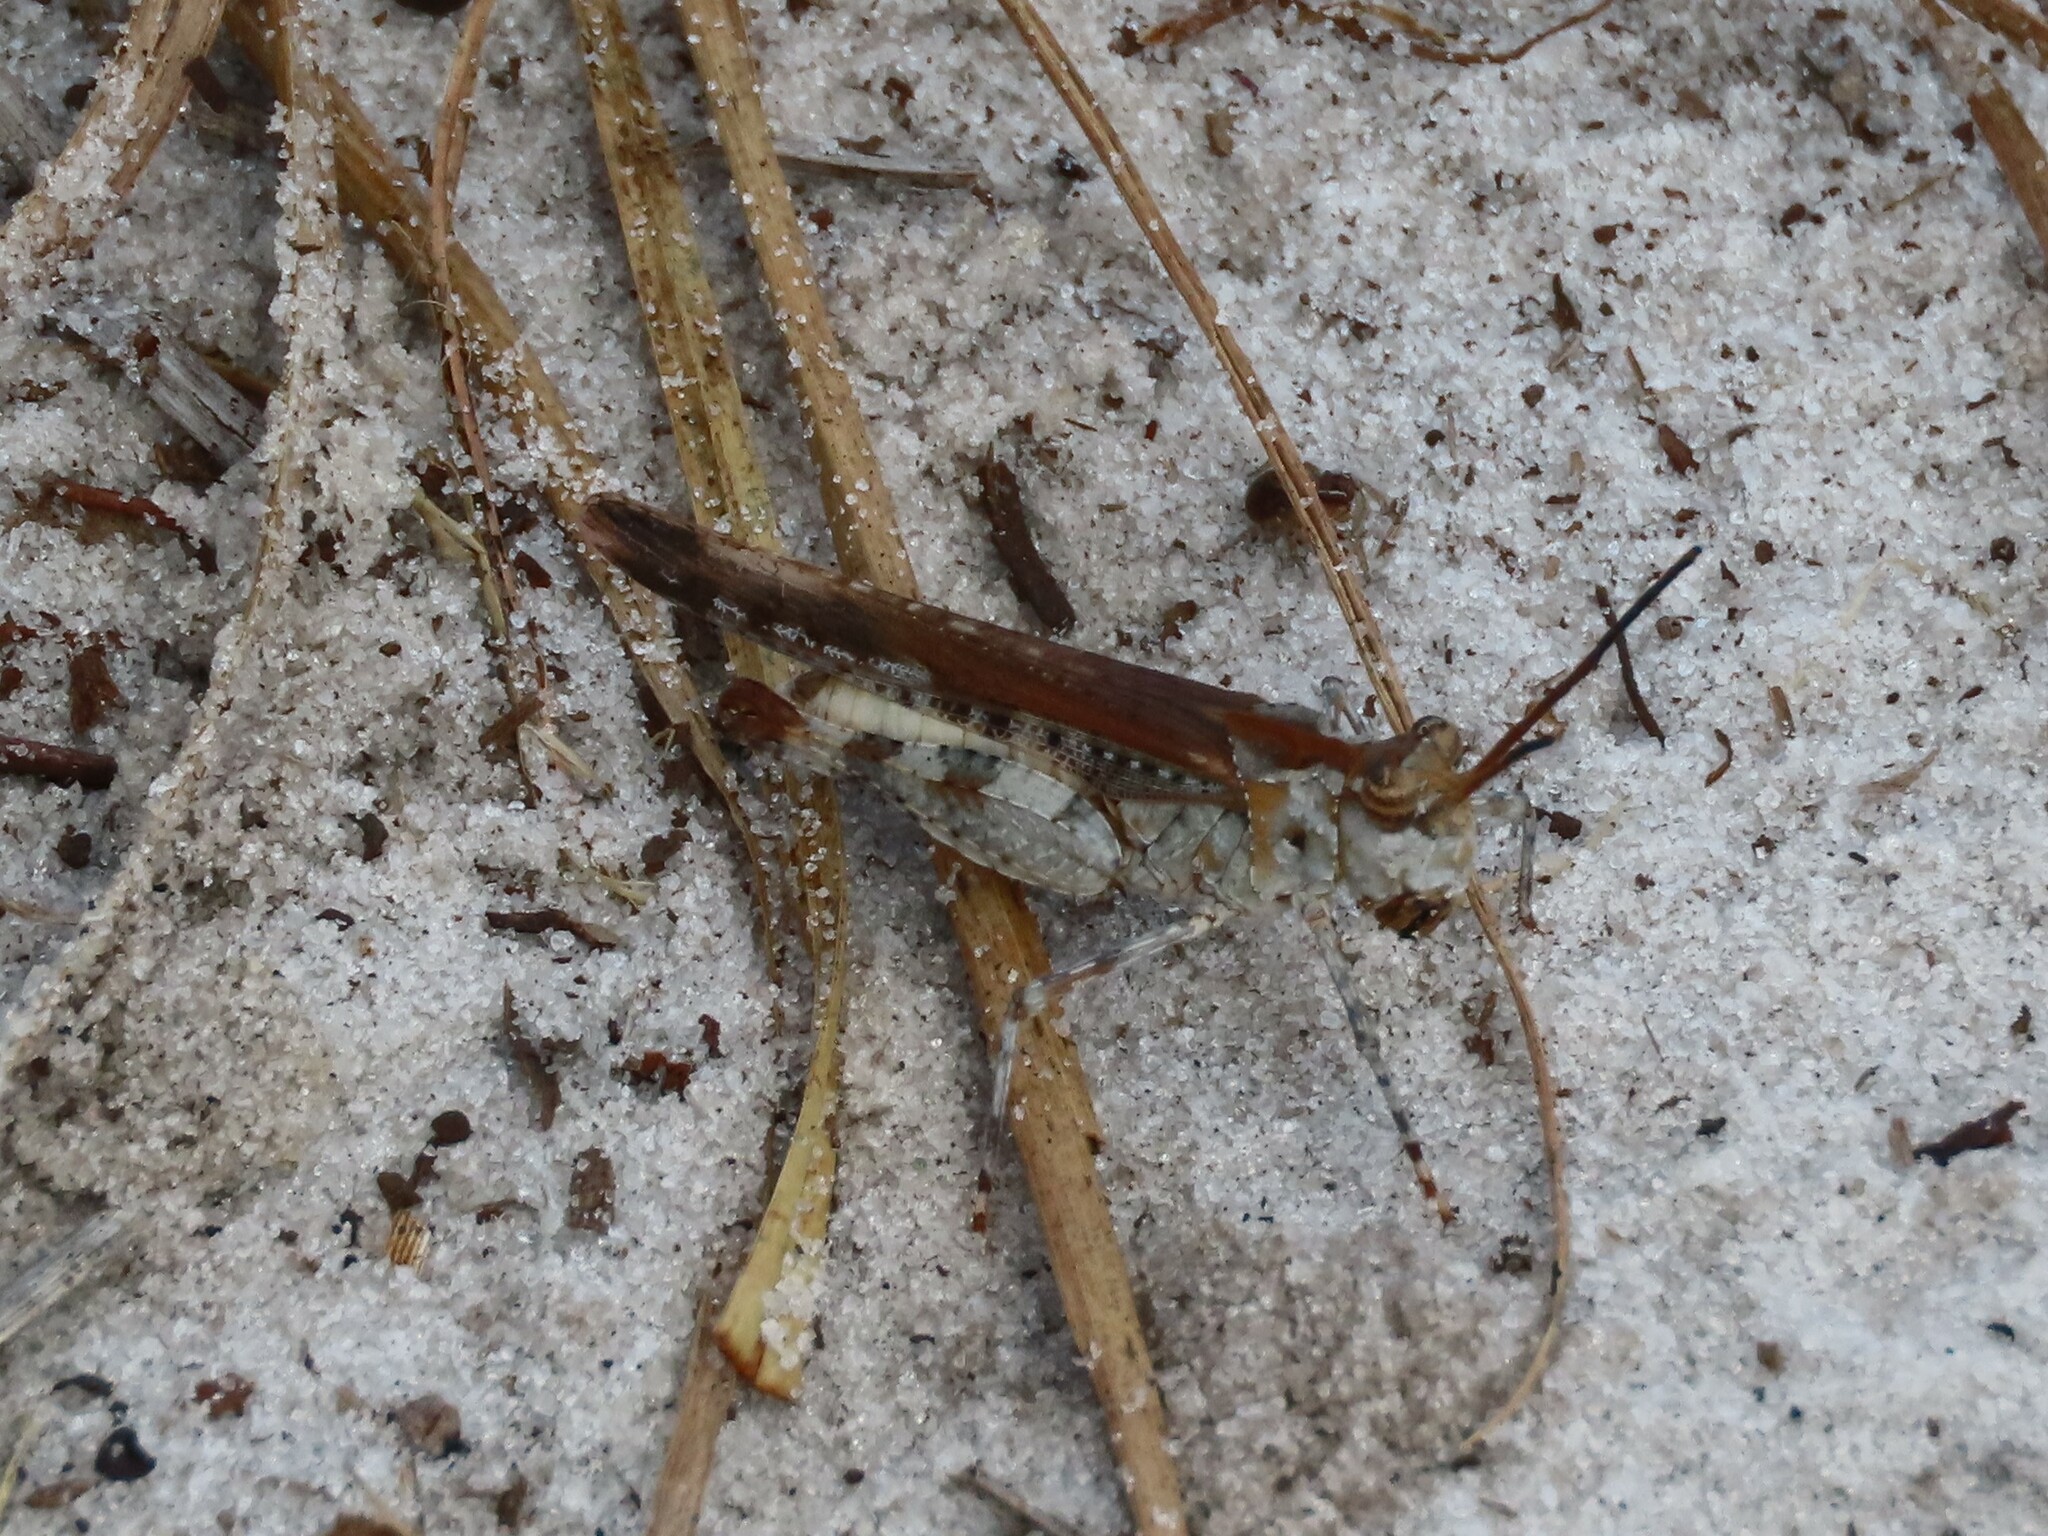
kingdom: Animalia
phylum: Arthropoda
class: Insecta
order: Orthoptera
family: Acrididae
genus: Psinidia
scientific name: Psinidia fenestralis
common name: Long-horned locust
